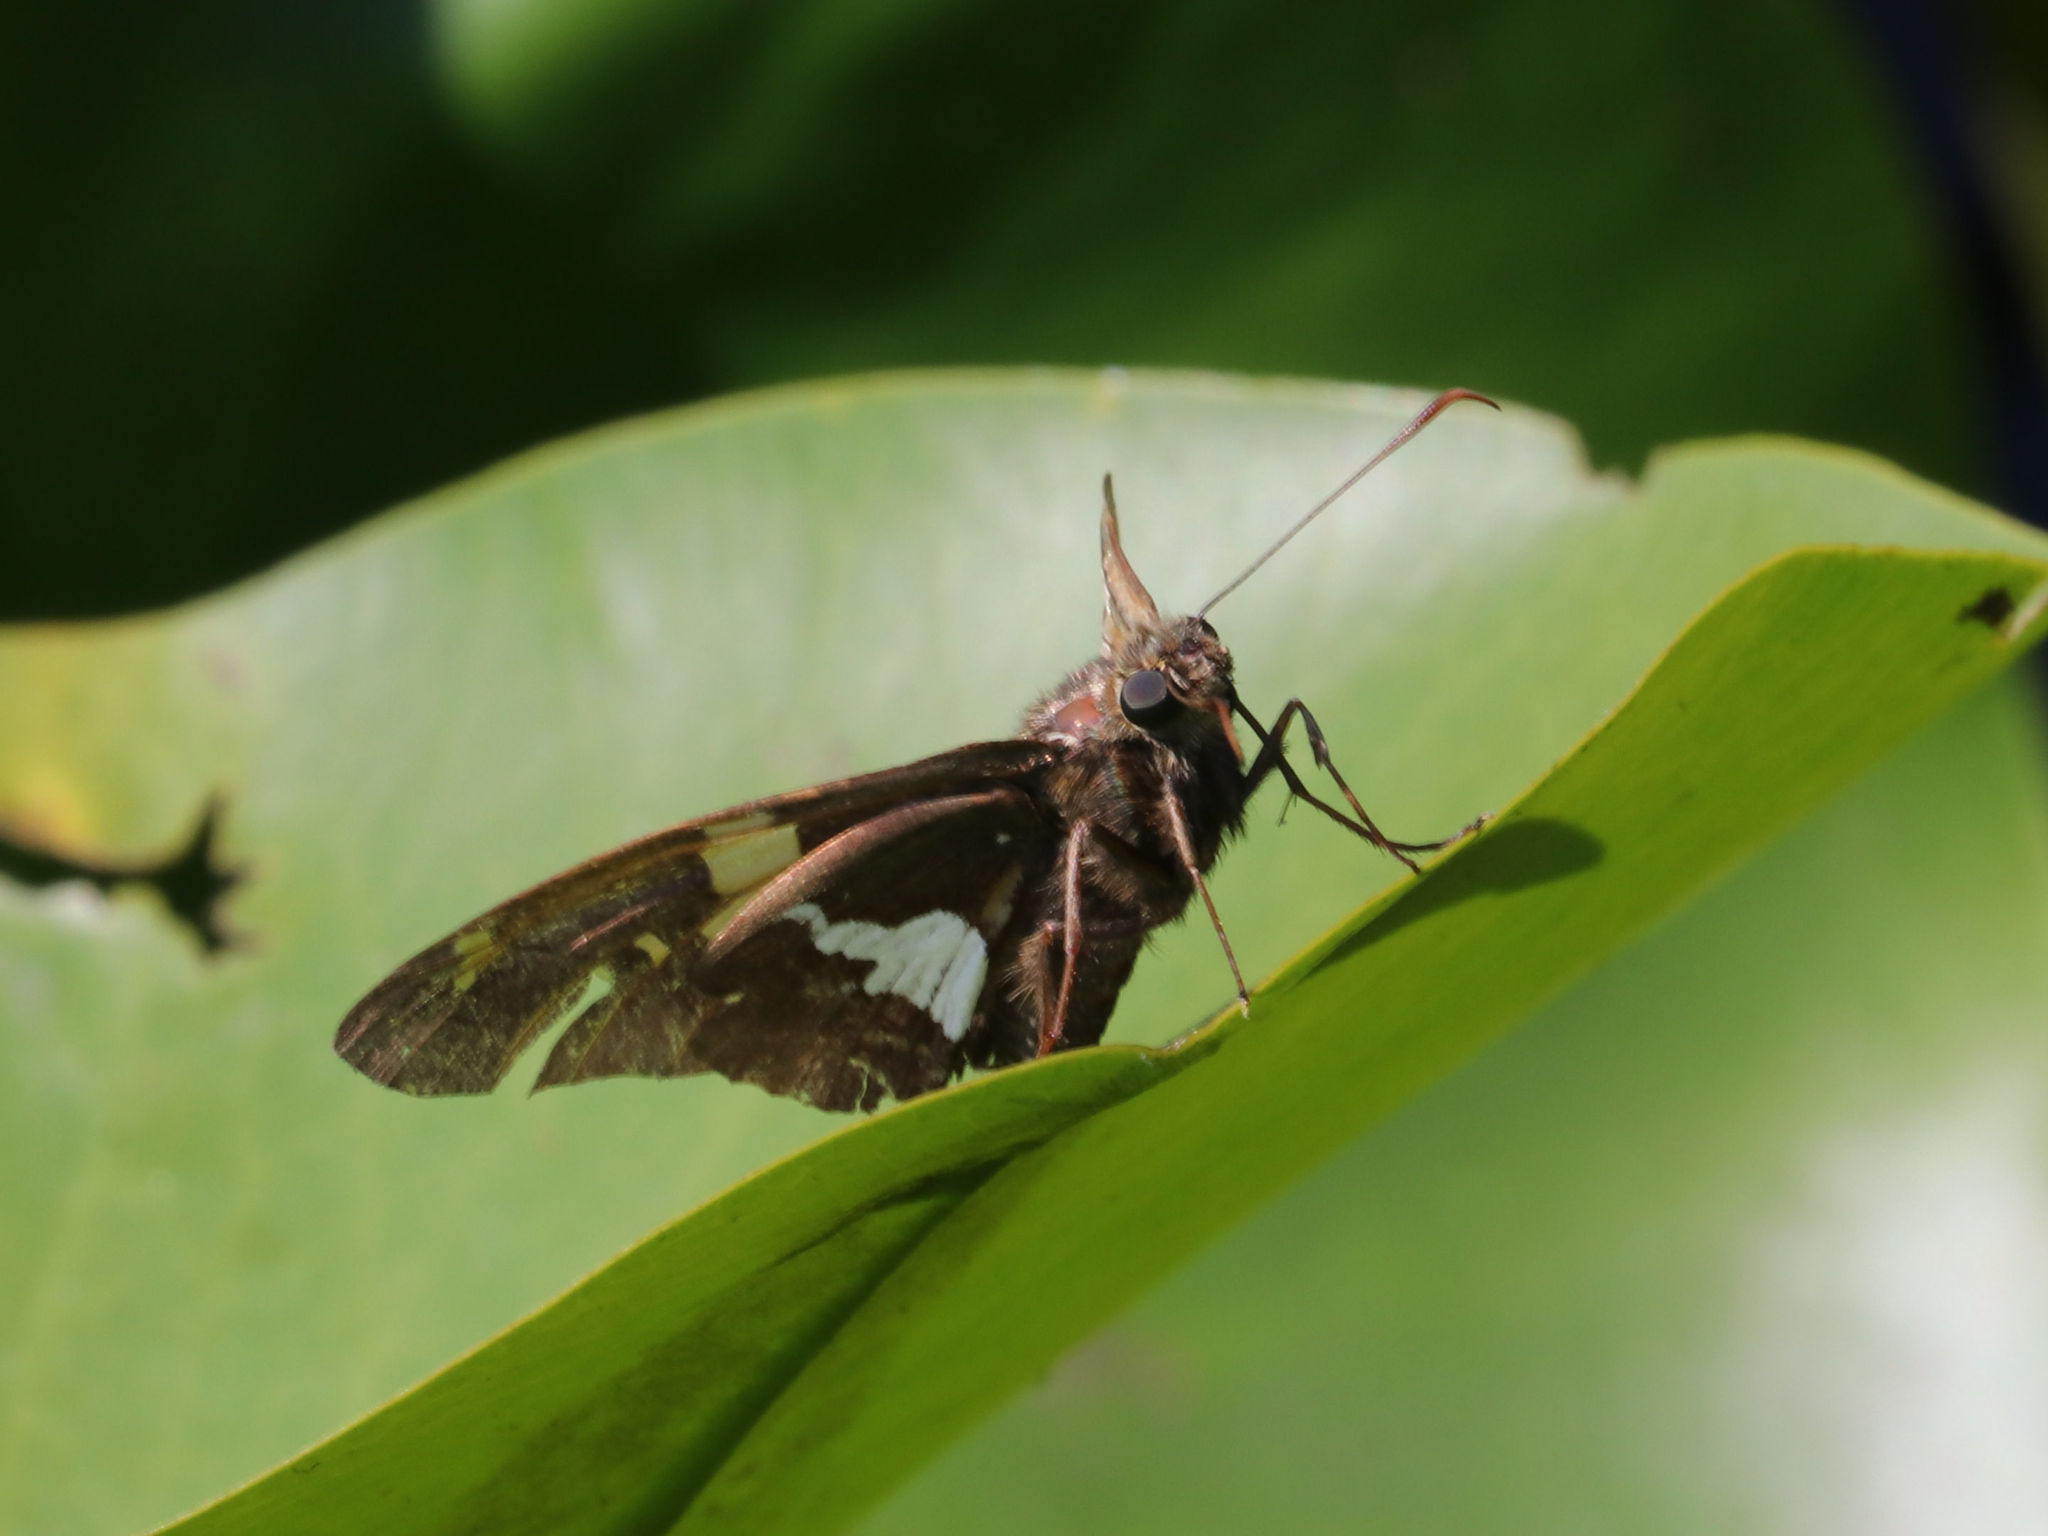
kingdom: Animalia
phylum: Arthropoda
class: Insecta
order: Lepidoptera
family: Hesperiidae
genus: Epargyreus
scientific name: Epargyreus clarus
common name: Silver-spotted skipper
